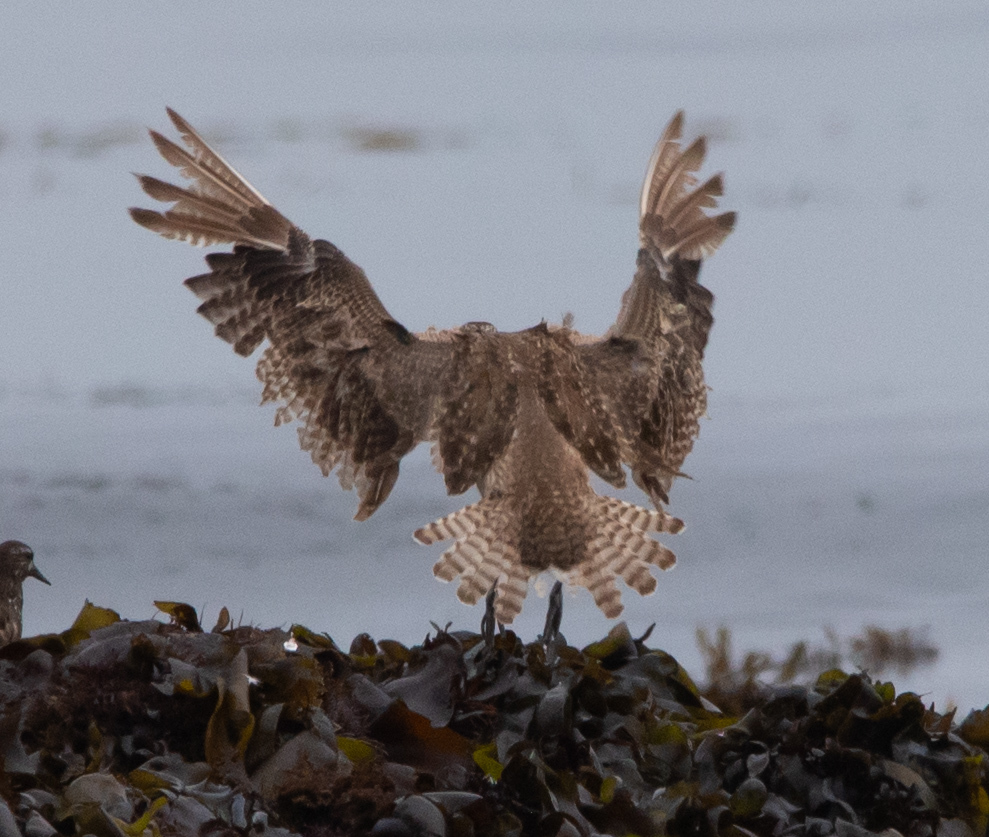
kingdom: Animalia
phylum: Chordata
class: Aves
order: Charadriiformes
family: Scolopacidae
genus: Numenius
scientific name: Numenius phaeopus
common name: Whimbrel
